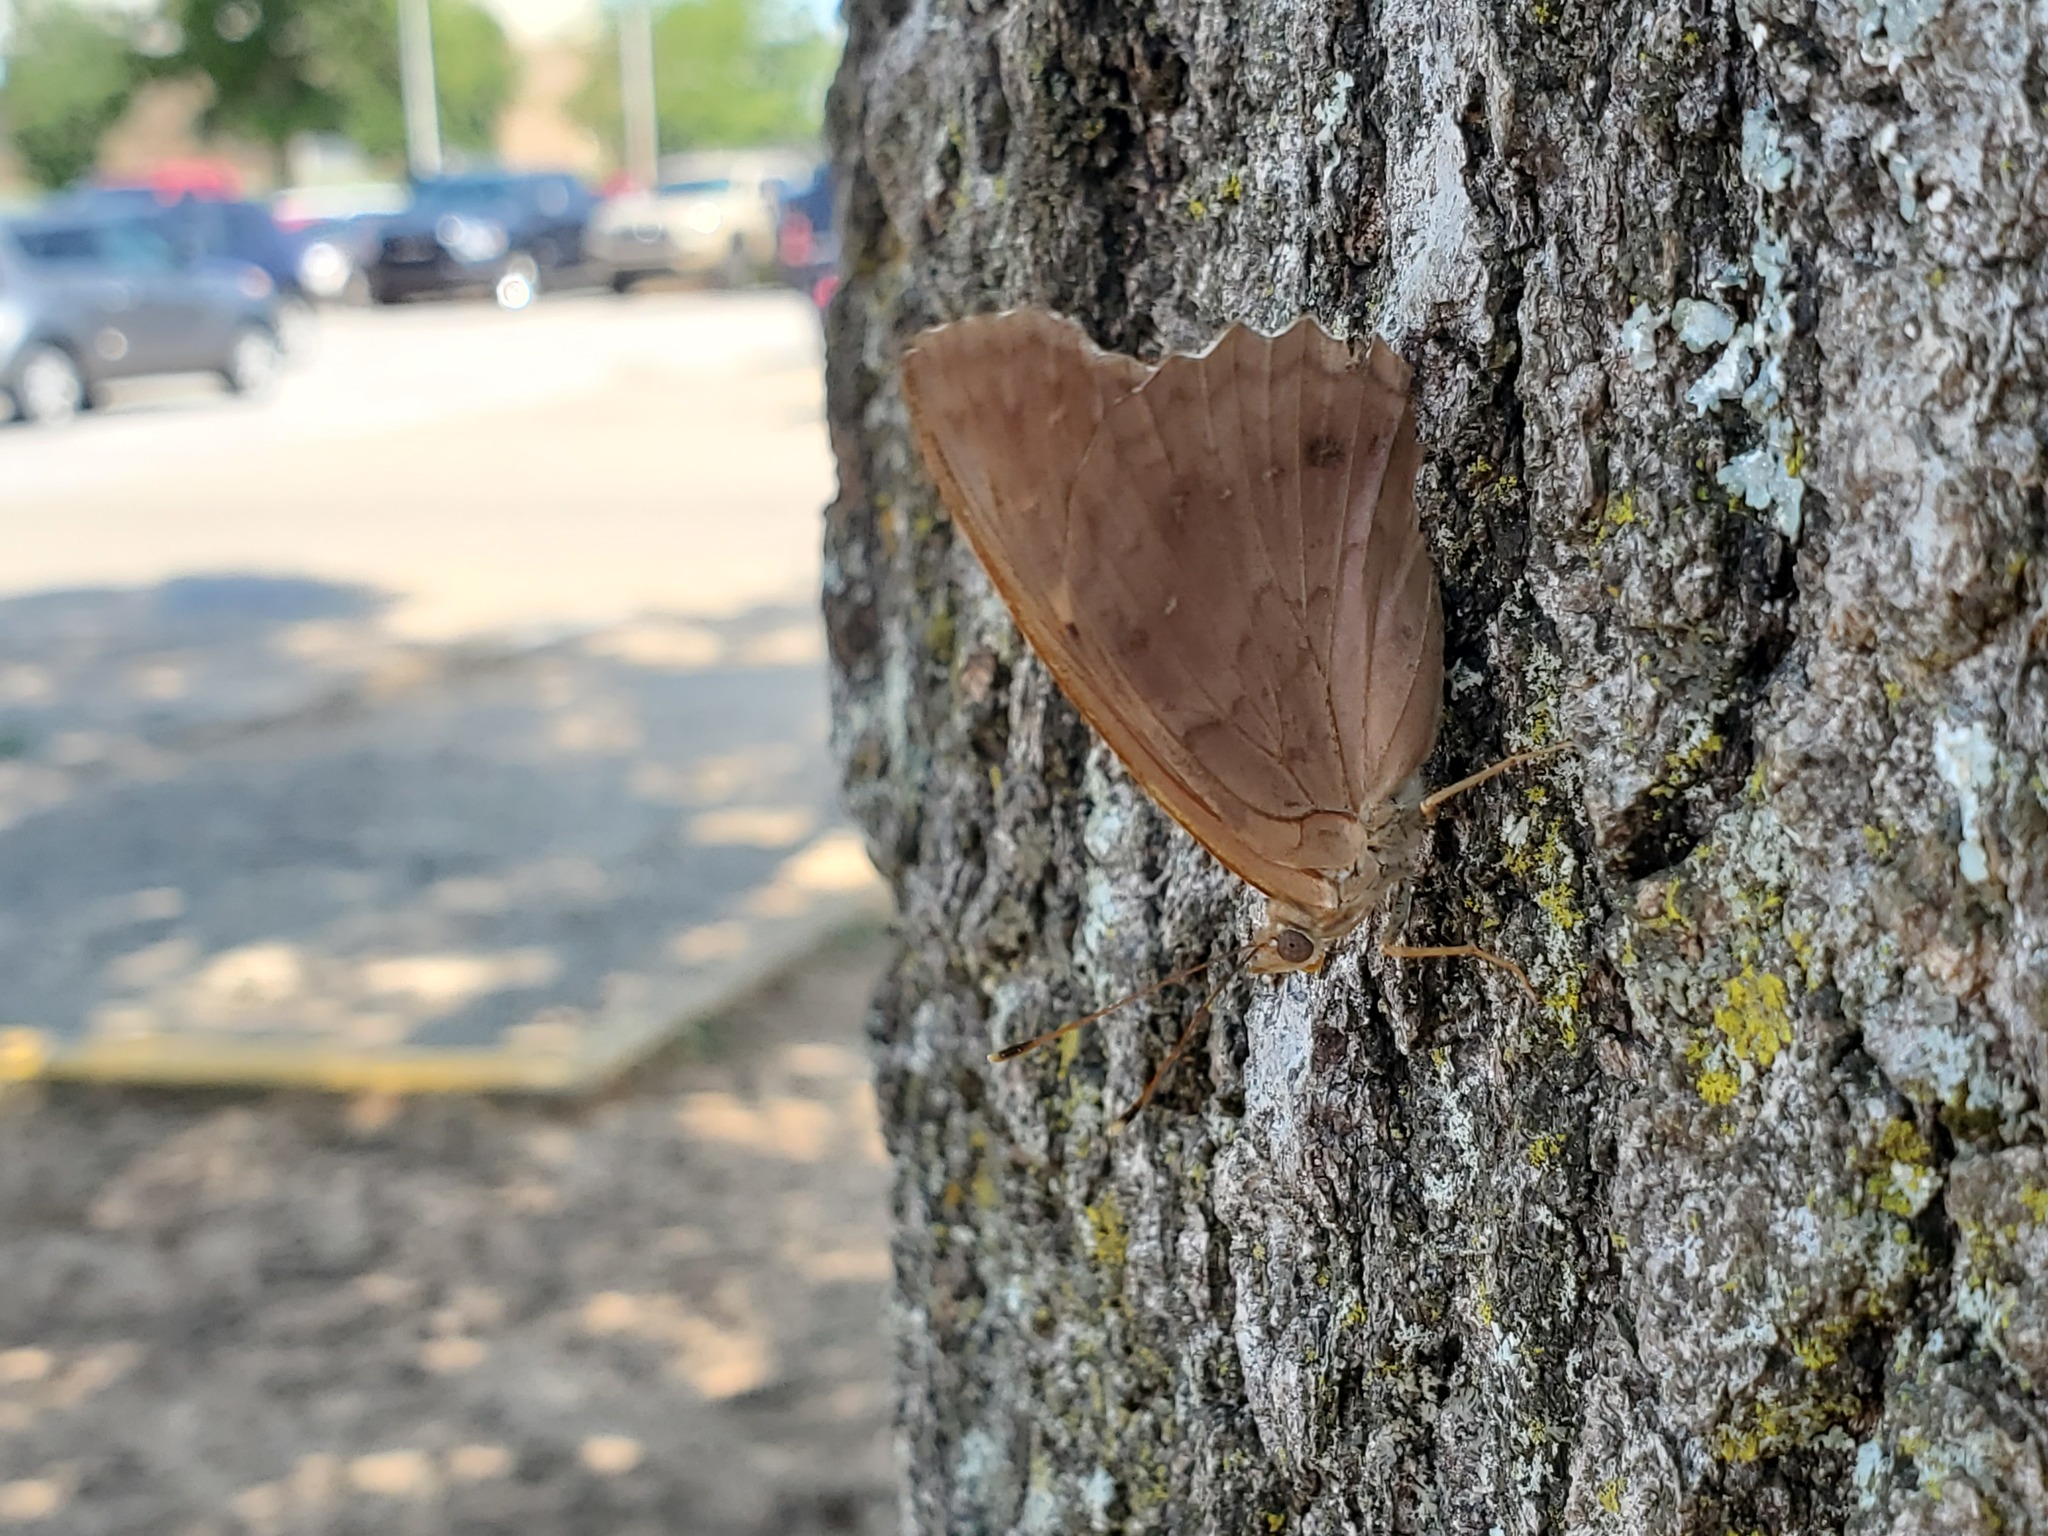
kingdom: Animalia
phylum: Arthropoda
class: Insecta
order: Lepidoptera
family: Nymphalidae
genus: Asterocampa
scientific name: Asterocampa clyton
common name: Tawny emperor
